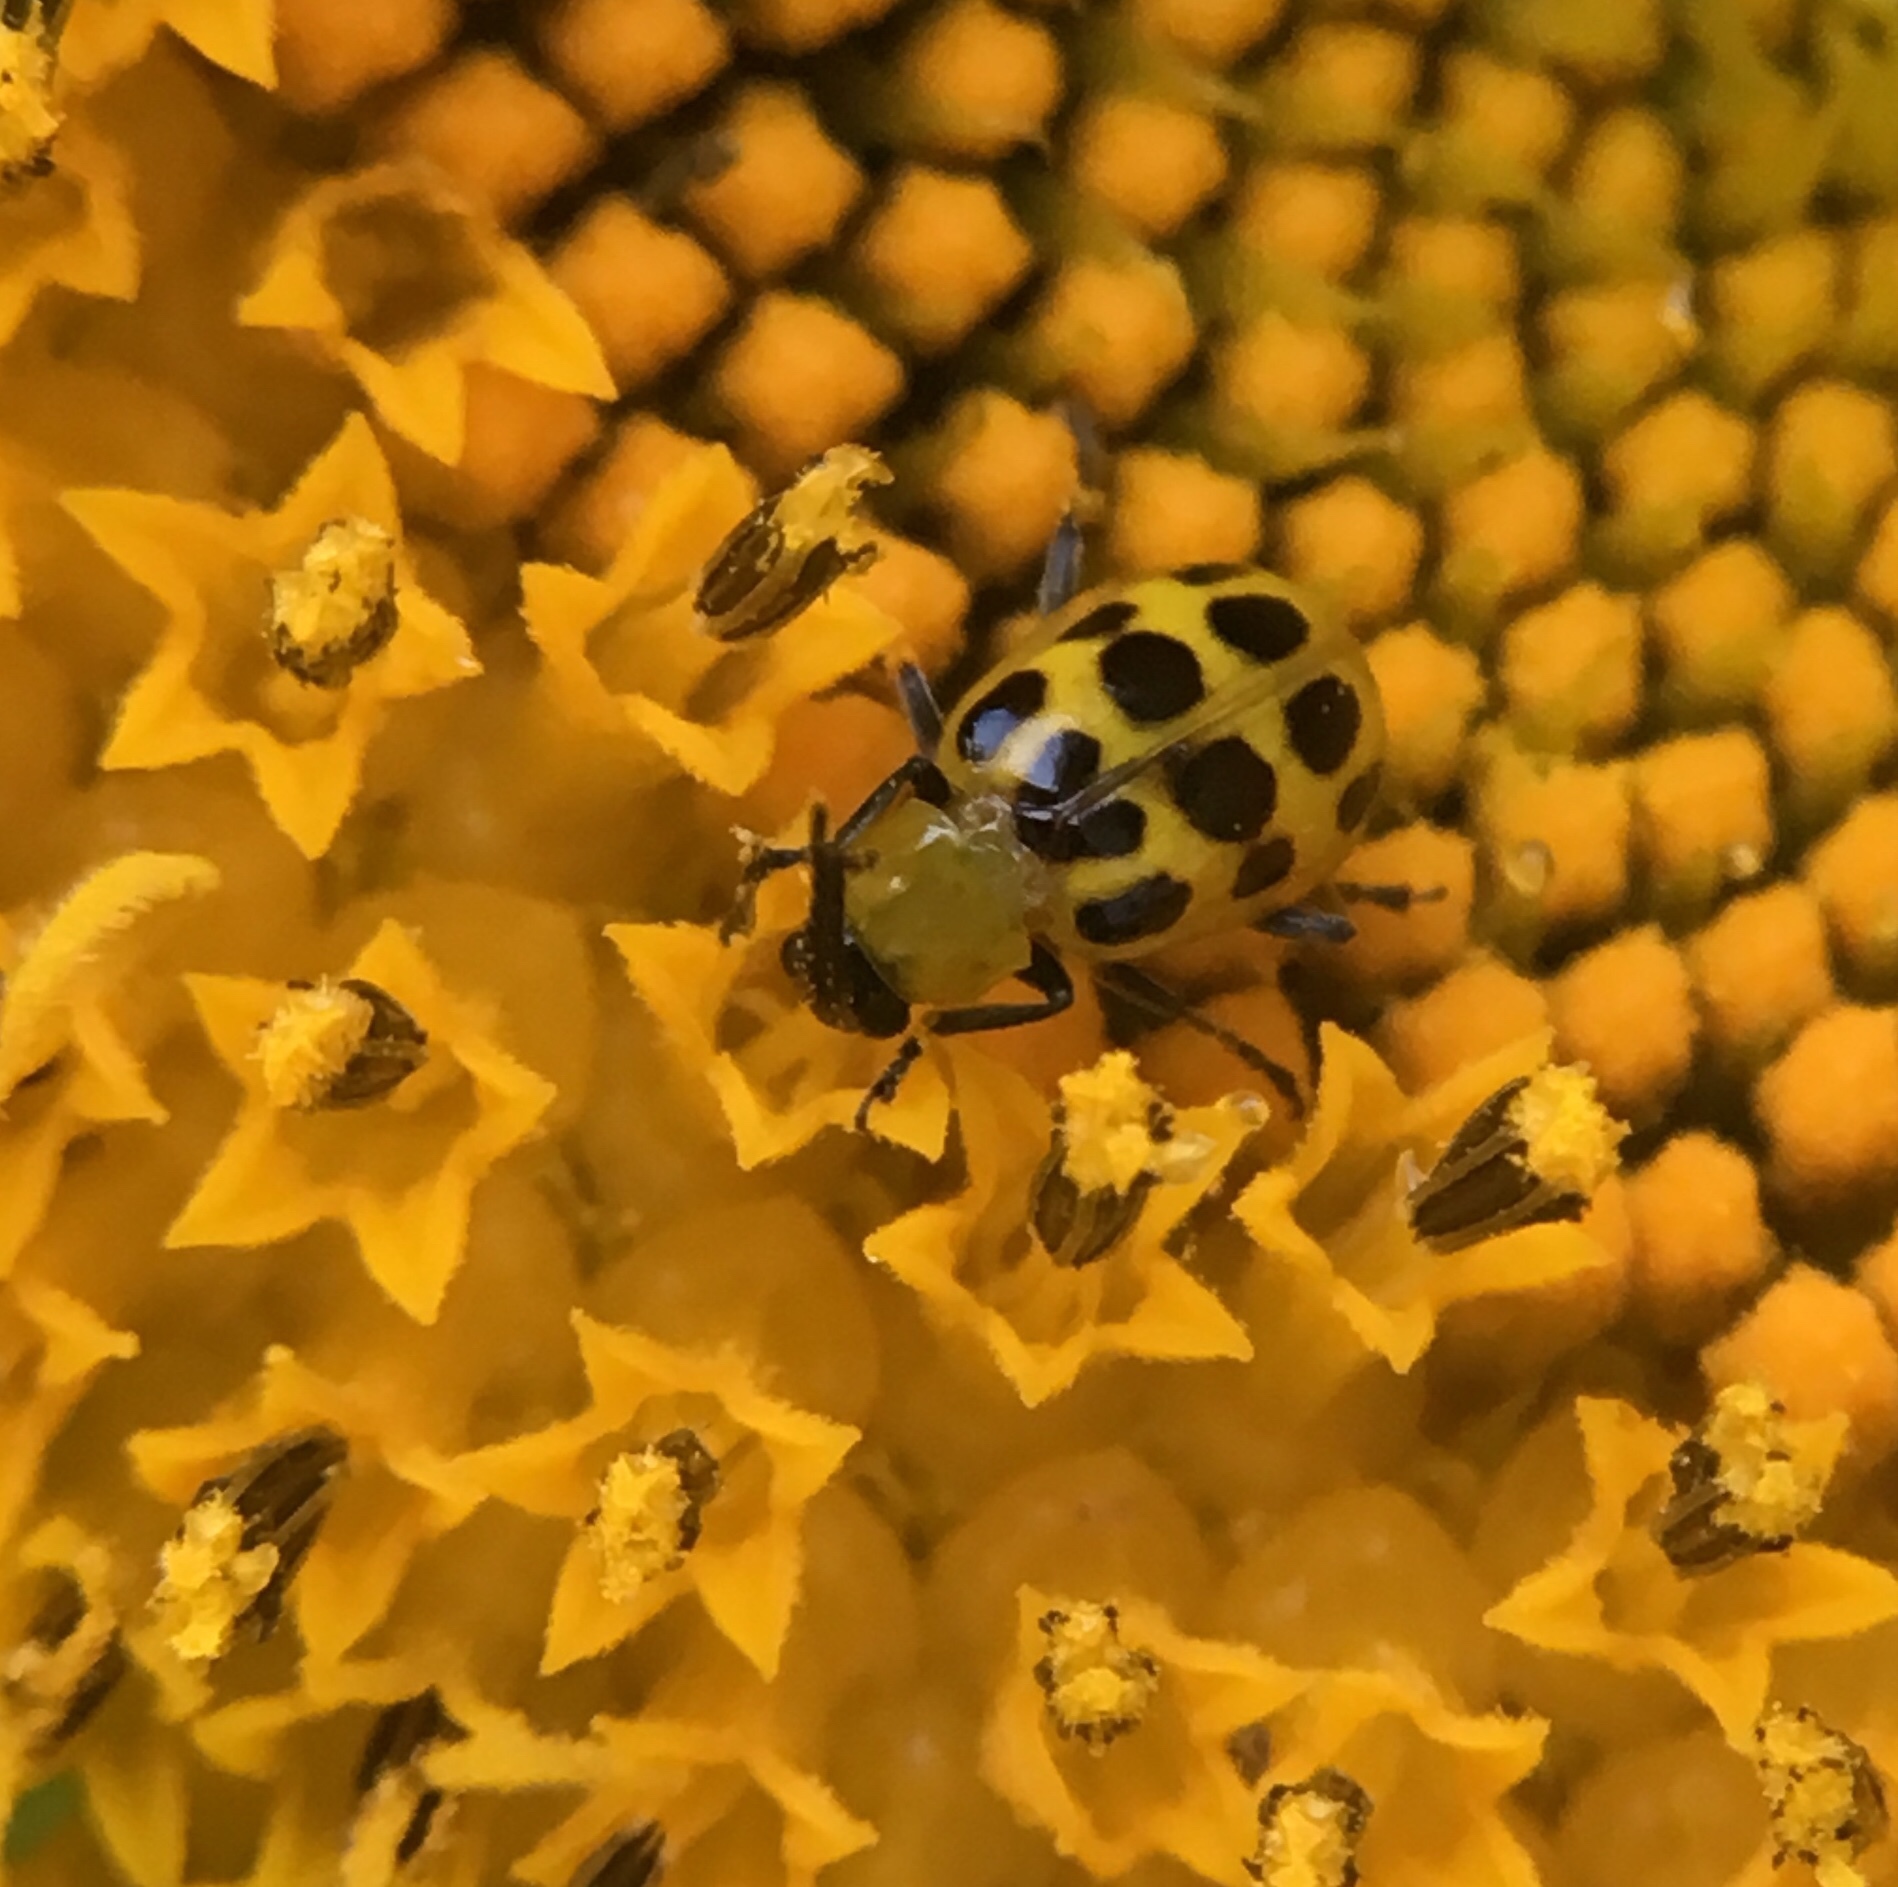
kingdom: Animalia
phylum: Arthropoda
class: Insecta
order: Coleoptera
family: Chrysomelidae
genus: Diabrotica
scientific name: Diabrotica undecimpunctata
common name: Spotted cucumber beetle
